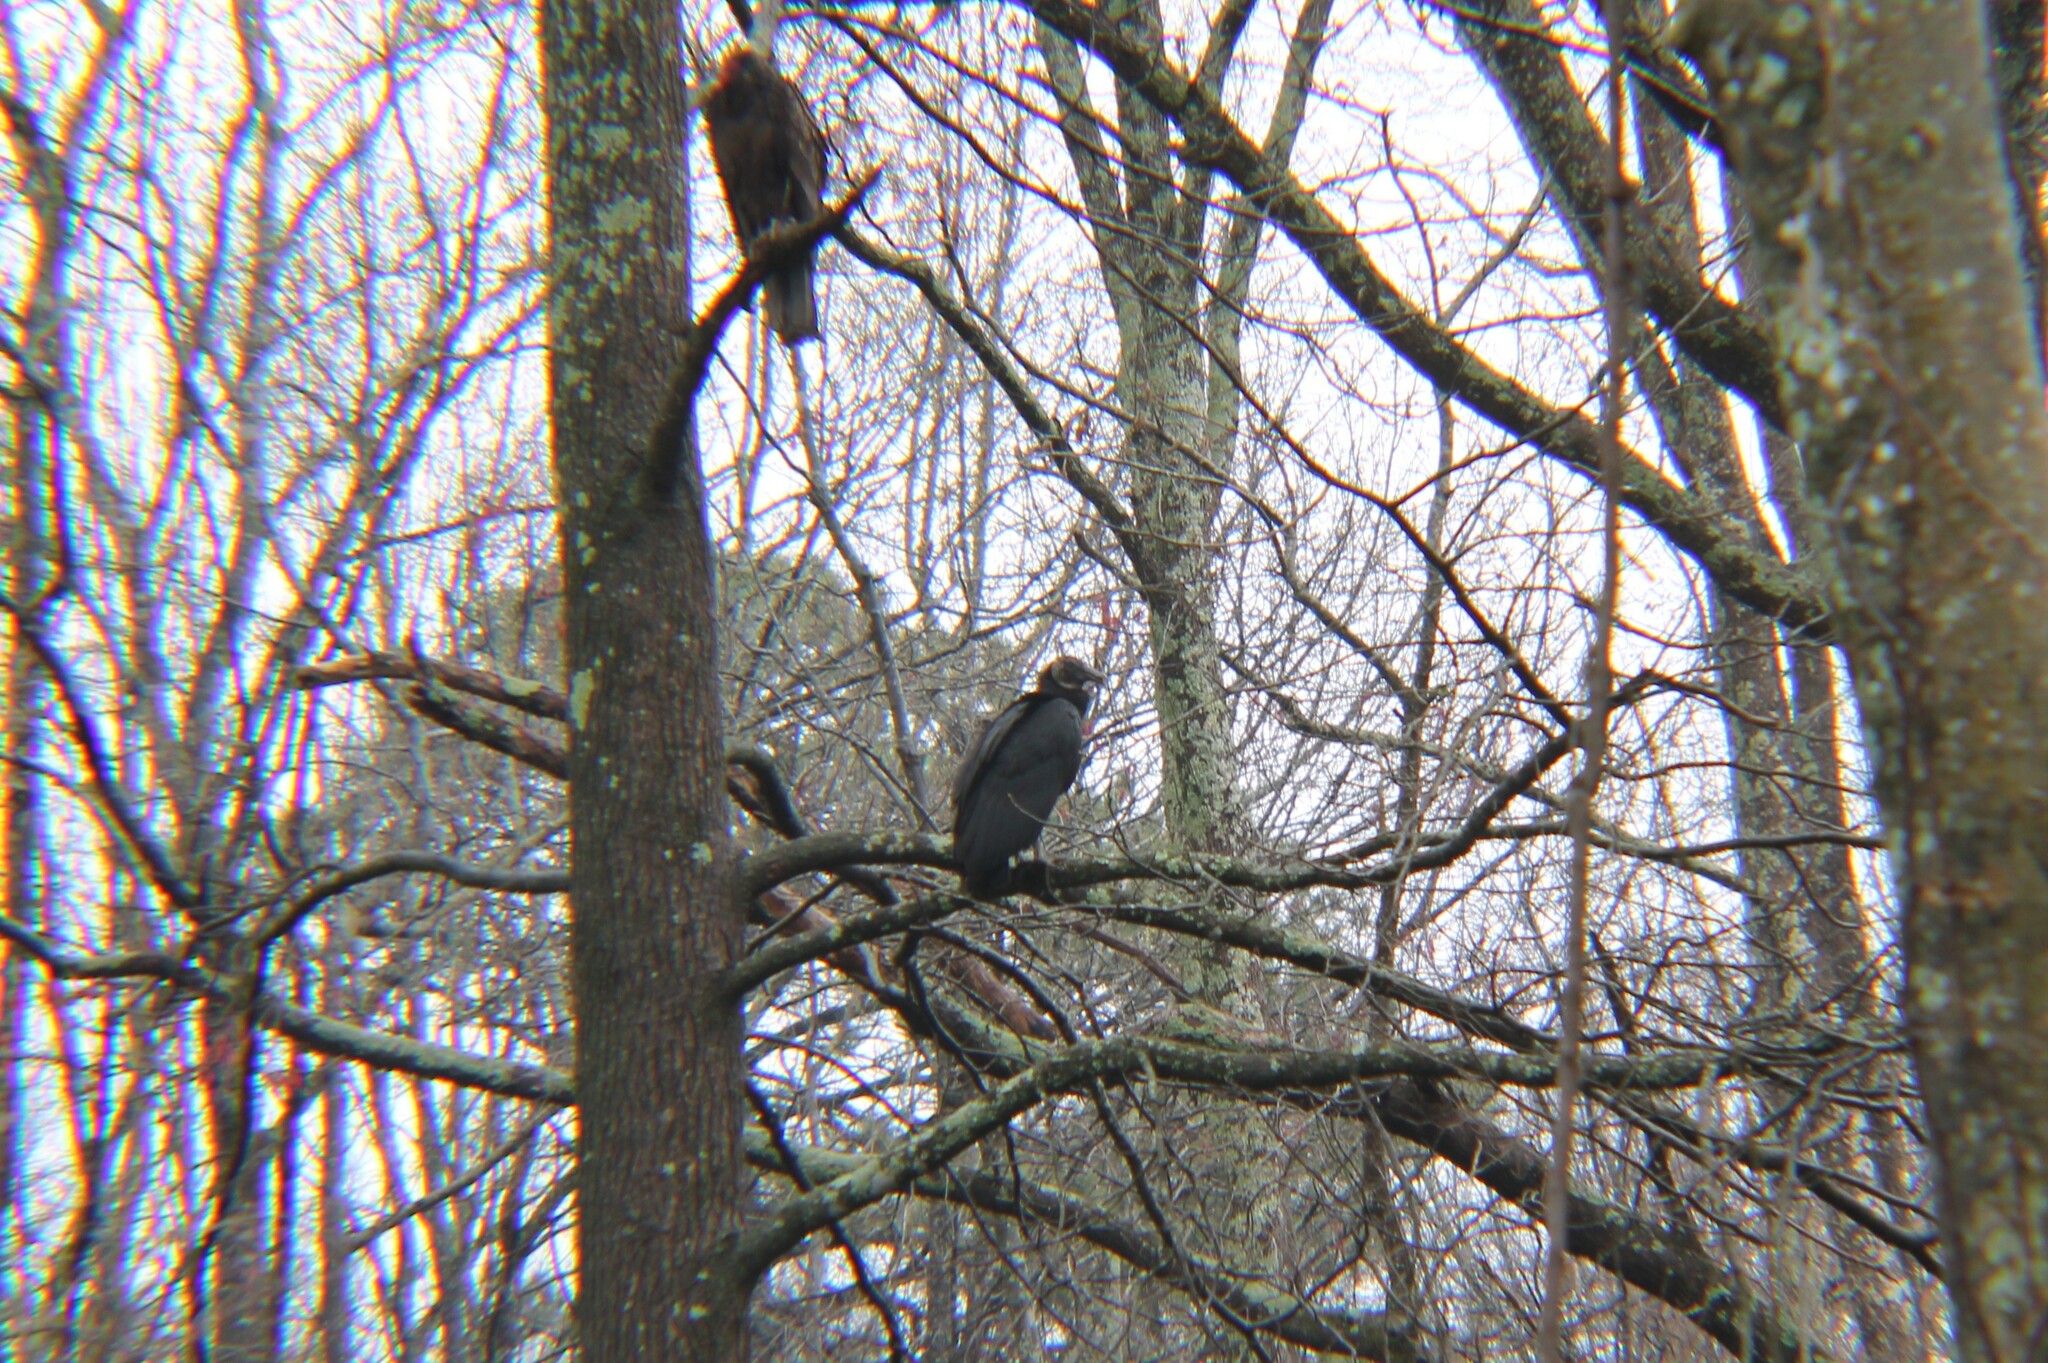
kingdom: Animalia
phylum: Chordata
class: Aves
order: Accipitriformes
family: Cathartidae
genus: Coragyps
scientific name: Coragyps atratus
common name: Black vulture
